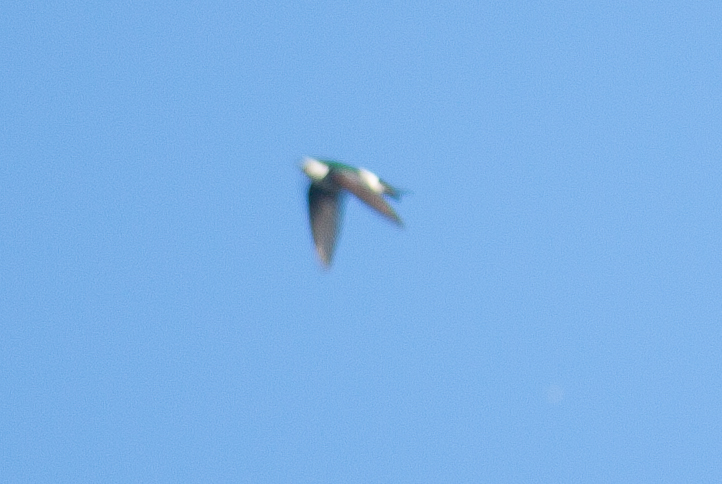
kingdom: Animalia
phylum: Chordata
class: Aves
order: Passeriformes
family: Hirundinidae
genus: Tachycineta
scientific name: Tachycineta thalassina
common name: Violet-green swallow
